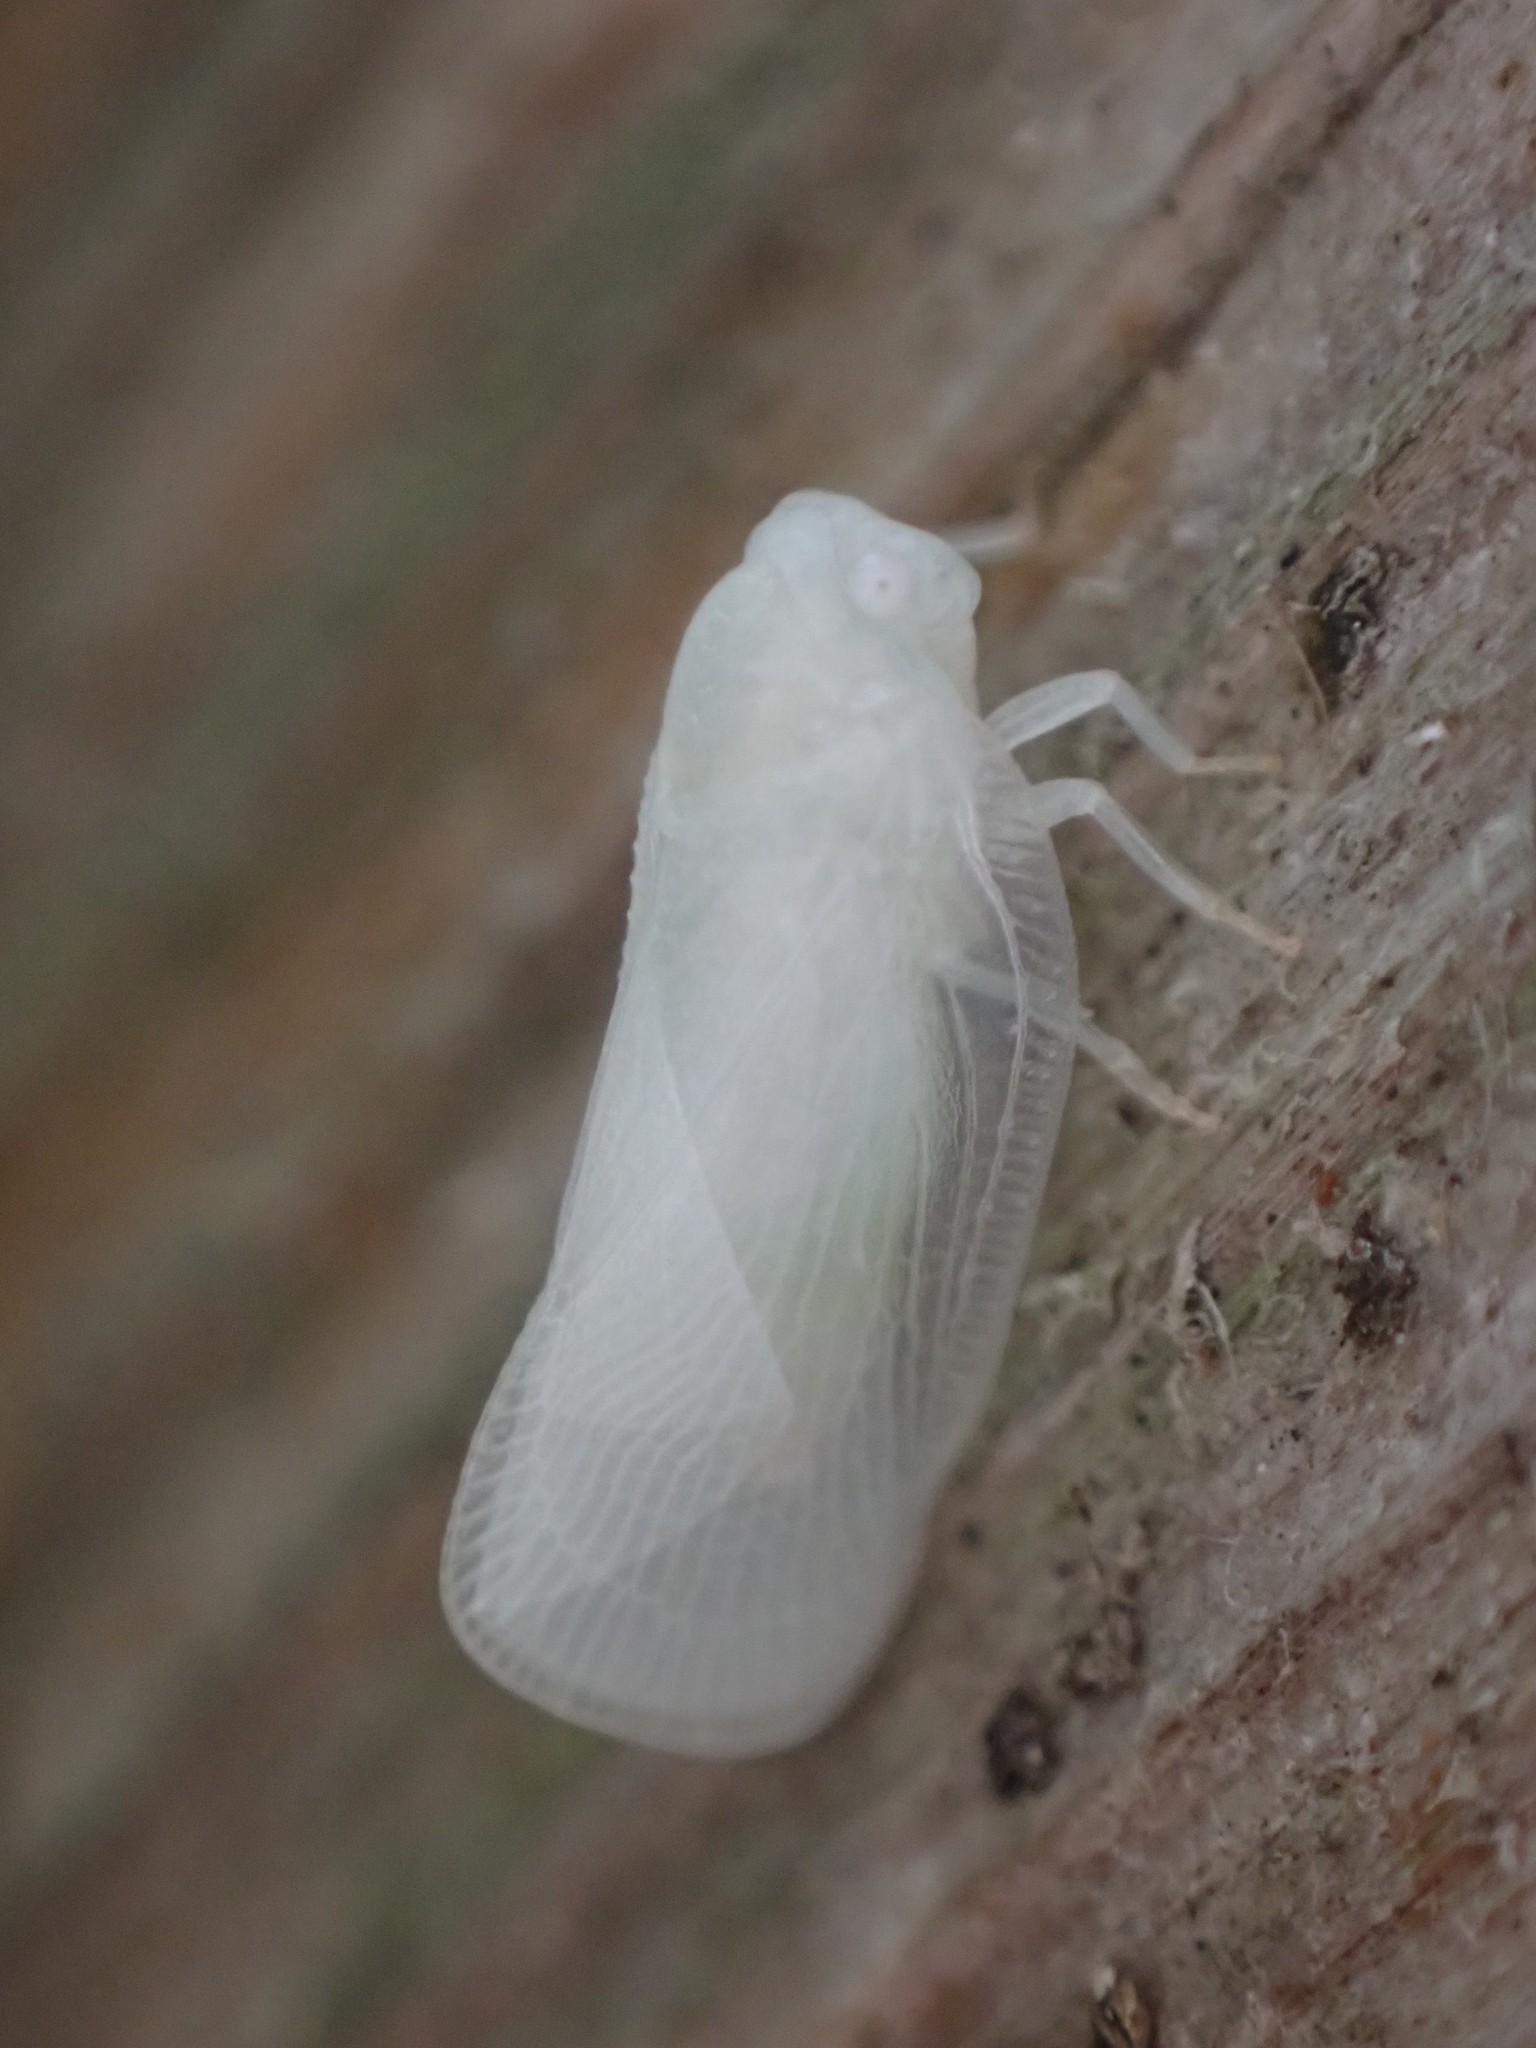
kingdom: Animalia
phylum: Arthropoda
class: Insecta
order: Hemiptera
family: Flatidae
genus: Metcalfa
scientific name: Metcalfa pruinosa
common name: Citrus flatid planthopper
